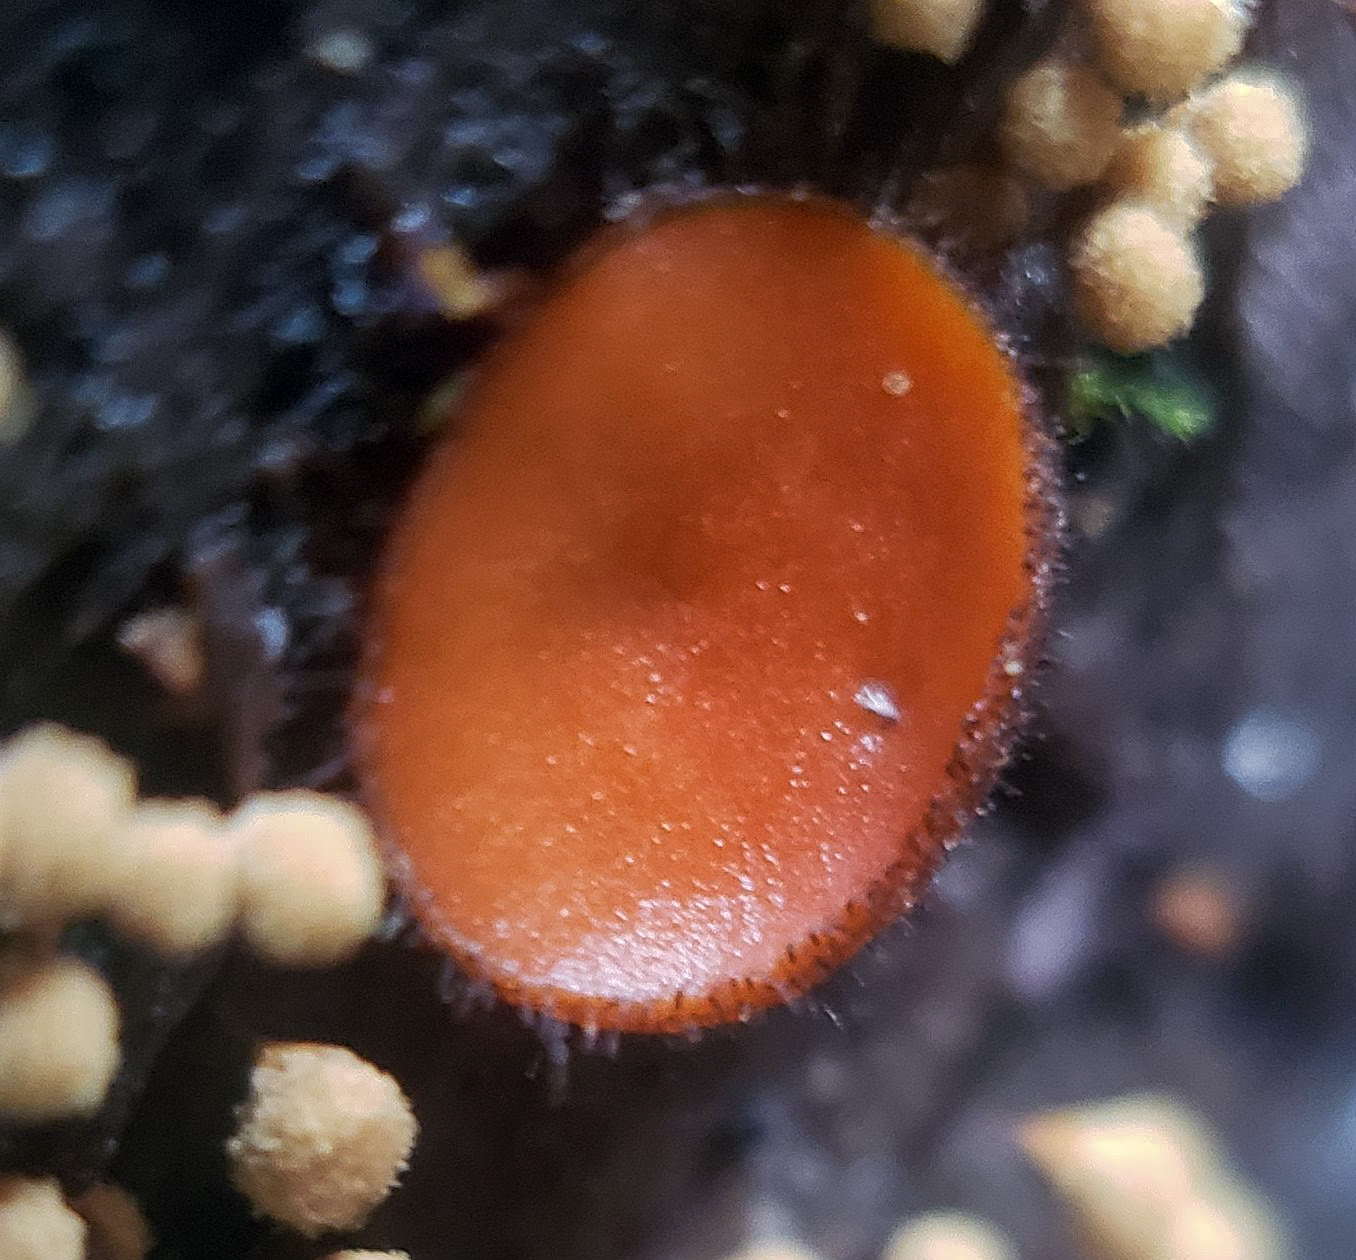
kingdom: Fungi
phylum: Ascomycota
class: Pezizomycetes
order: Pezizales
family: Pyronemataceae
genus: Scutellinia
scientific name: Scutellinia
